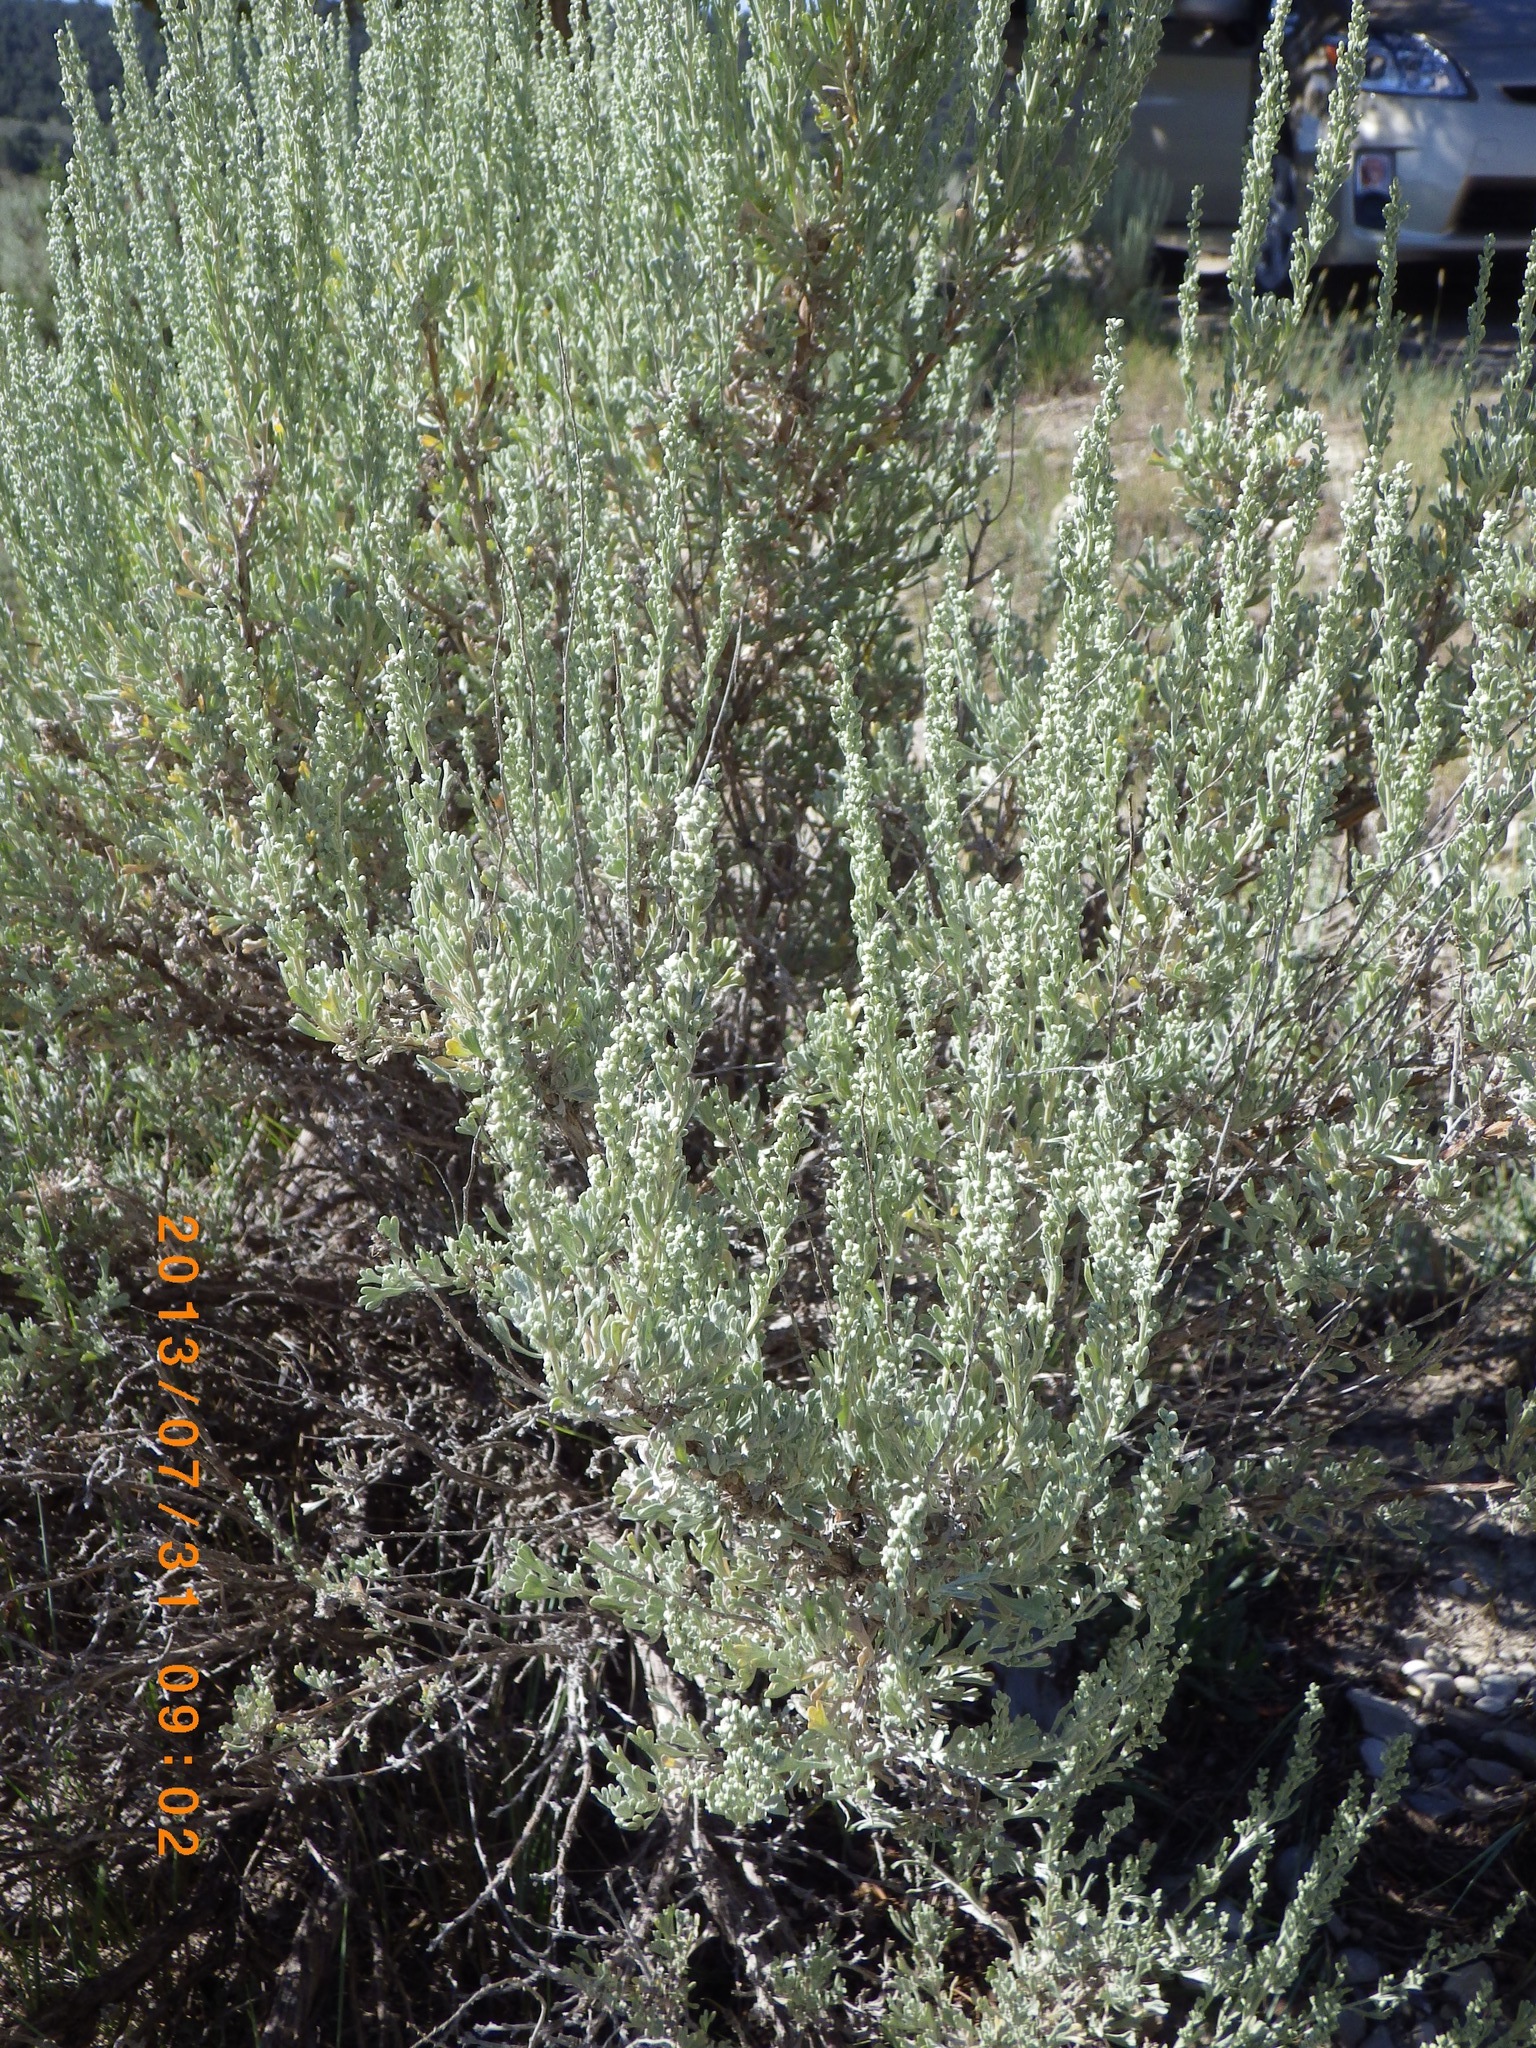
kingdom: Plantae
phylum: Tracheophyta
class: Magnoliopsida
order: Asterales
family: Asteraceae
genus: Artemisia
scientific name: Artemisia tridentata
